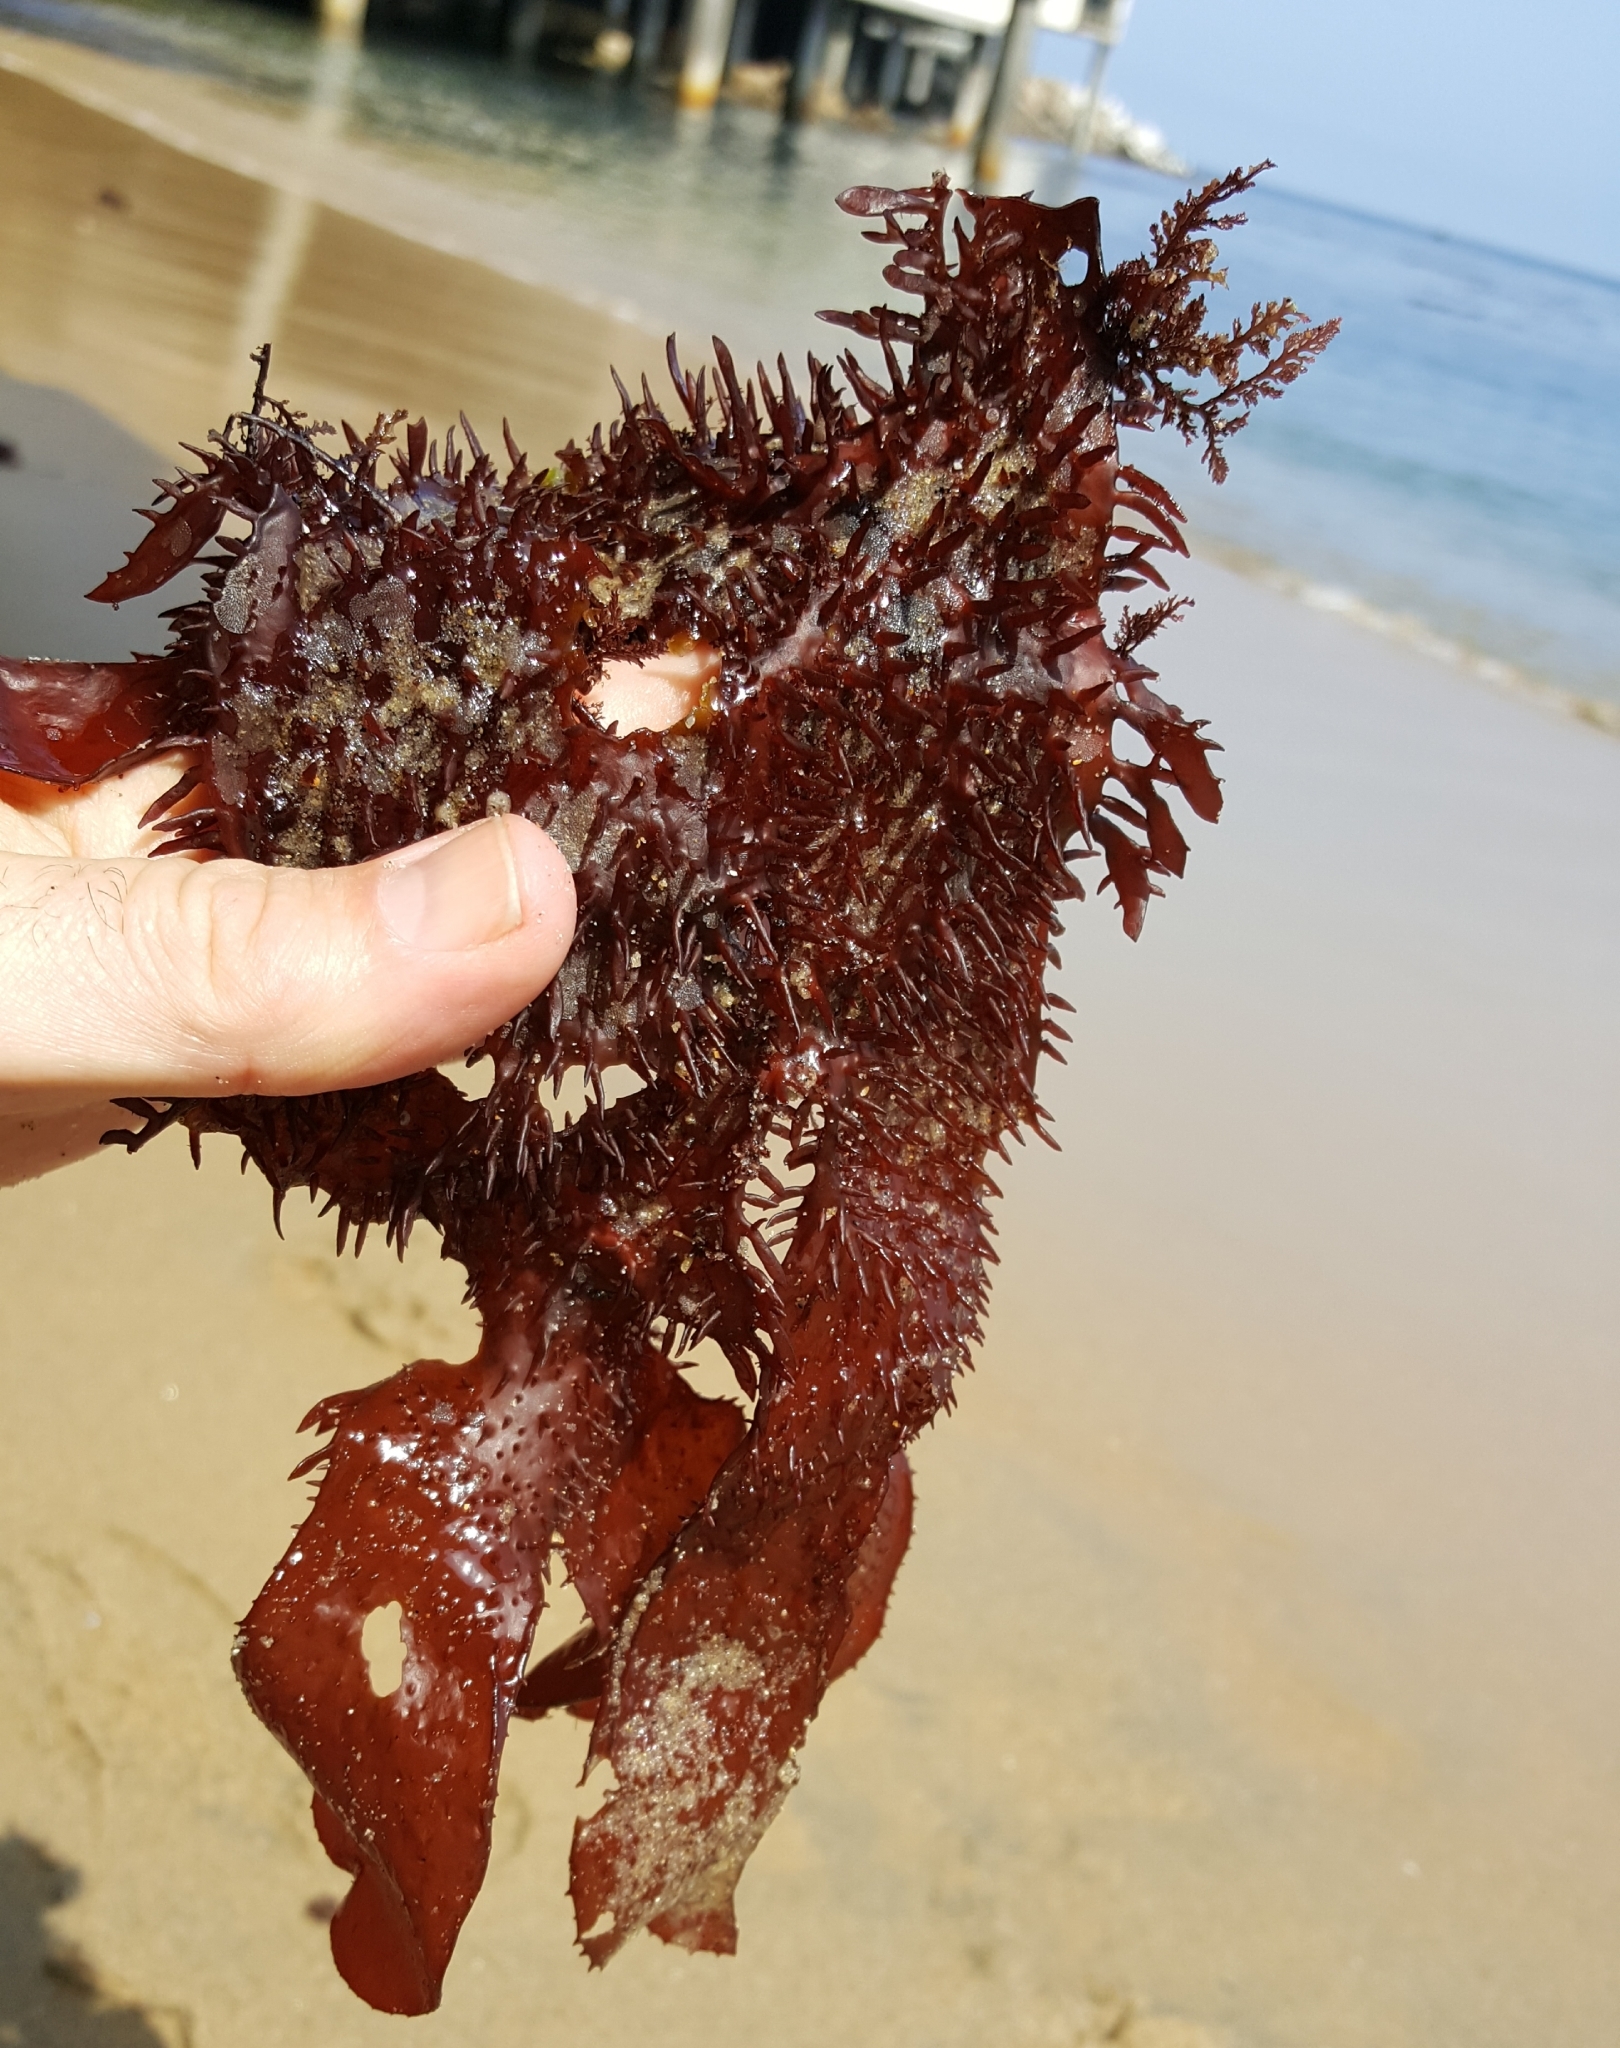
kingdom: Plantae
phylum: Rhodophyta
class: Florideophyceae
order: Gigartinales
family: Gigartinaceae
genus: Chondracanthus
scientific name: Chondracanthus spinosus
